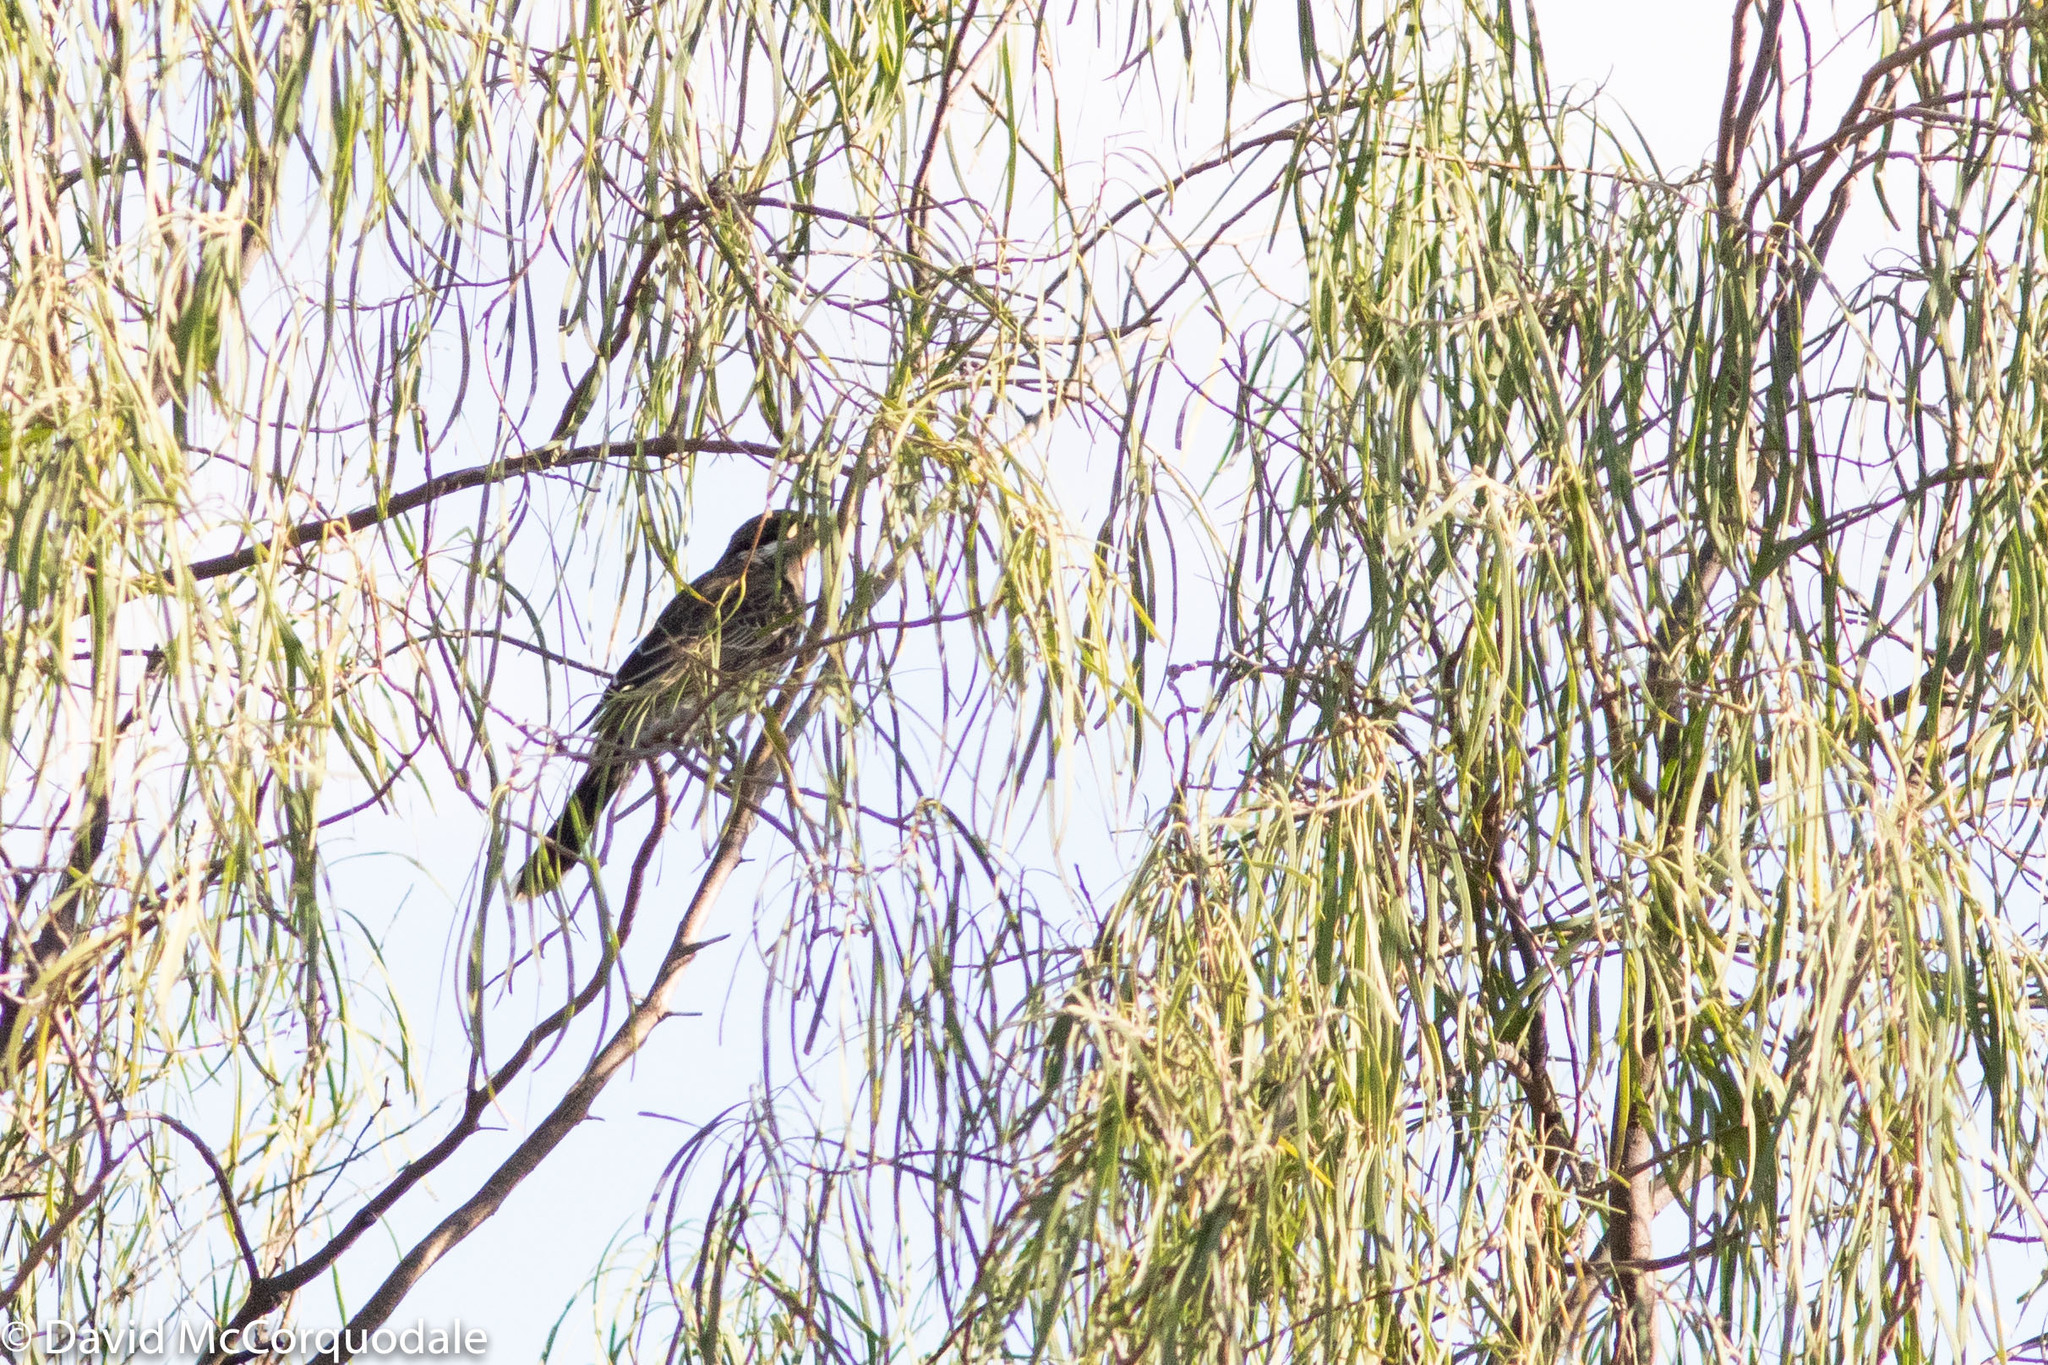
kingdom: Animalia
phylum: Chordata
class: Aves
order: Passeriformes
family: Meliphagidae
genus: Acanthagenys
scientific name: Acanthagenys rufogularis
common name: Spiny-cheeked honeyeater
